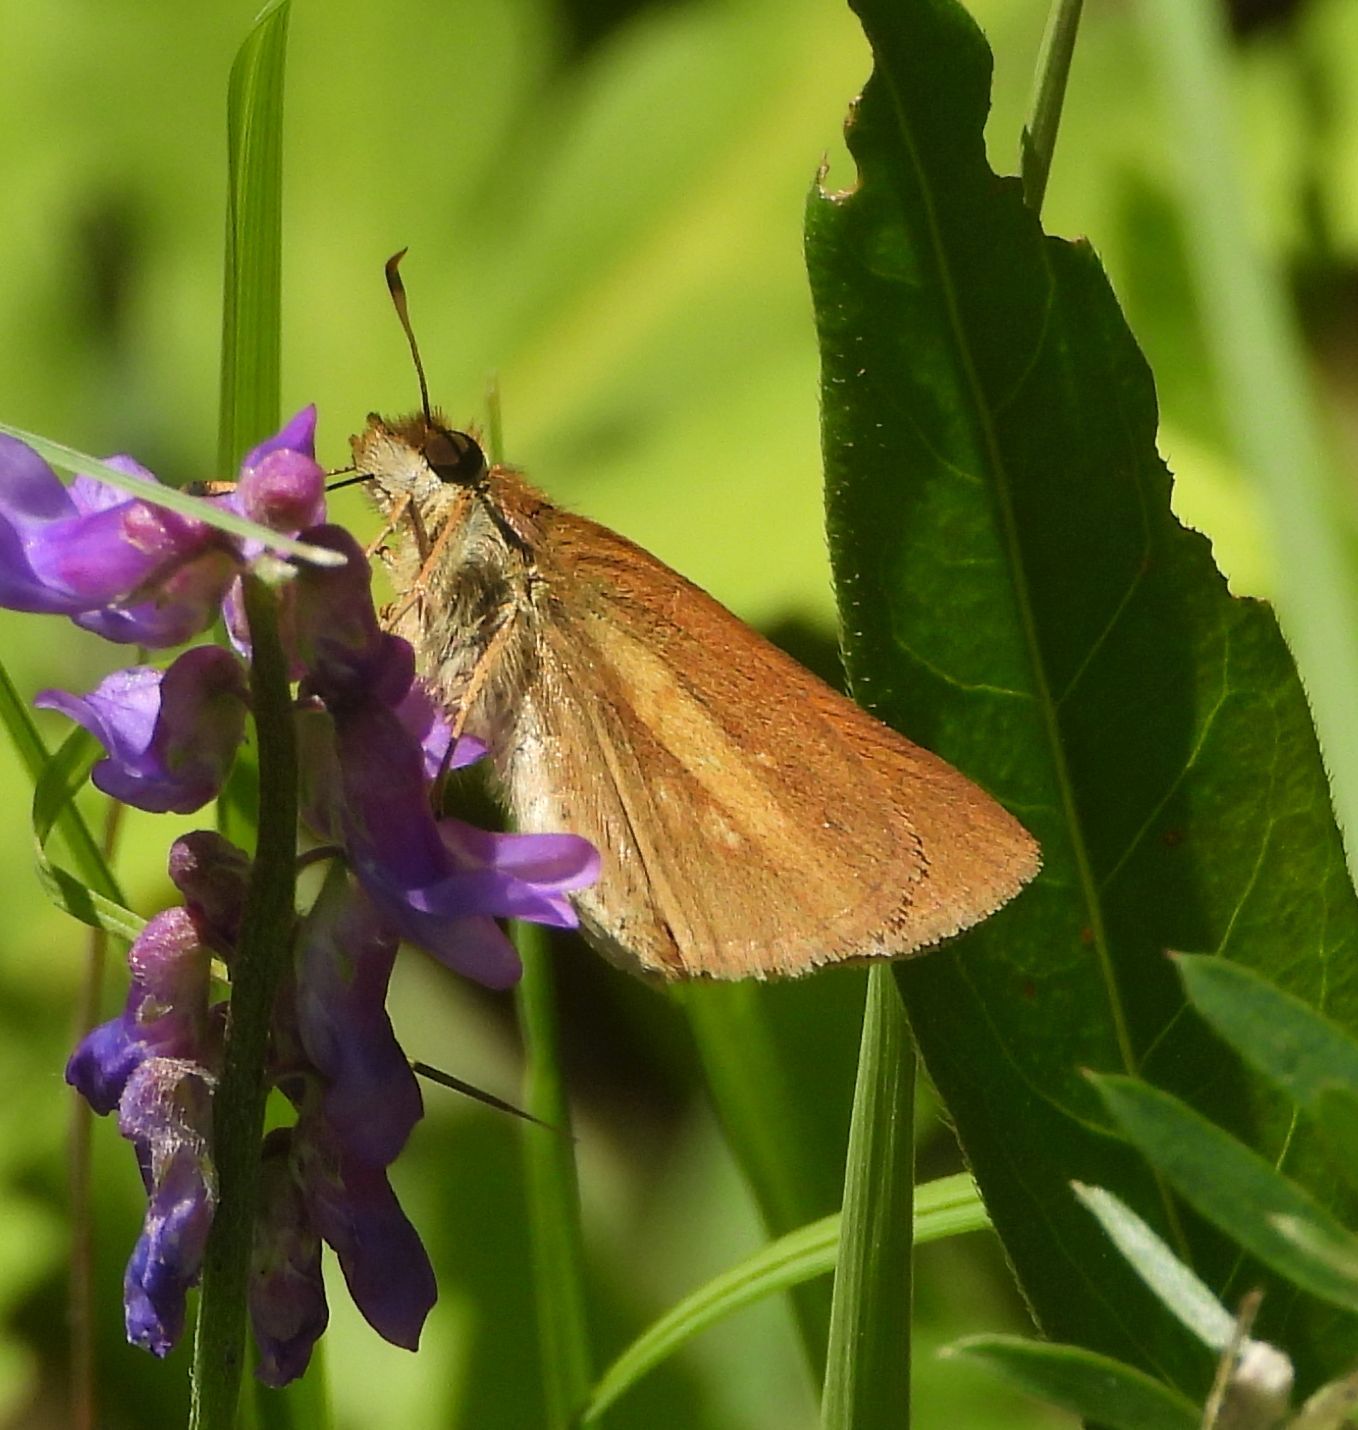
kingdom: Animalia
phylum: Arthropoda
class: Insecta
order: Lepidoptera
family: Hesperiidae
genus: Poanes
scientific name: Poanes viator
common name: Broad-winged skipper
